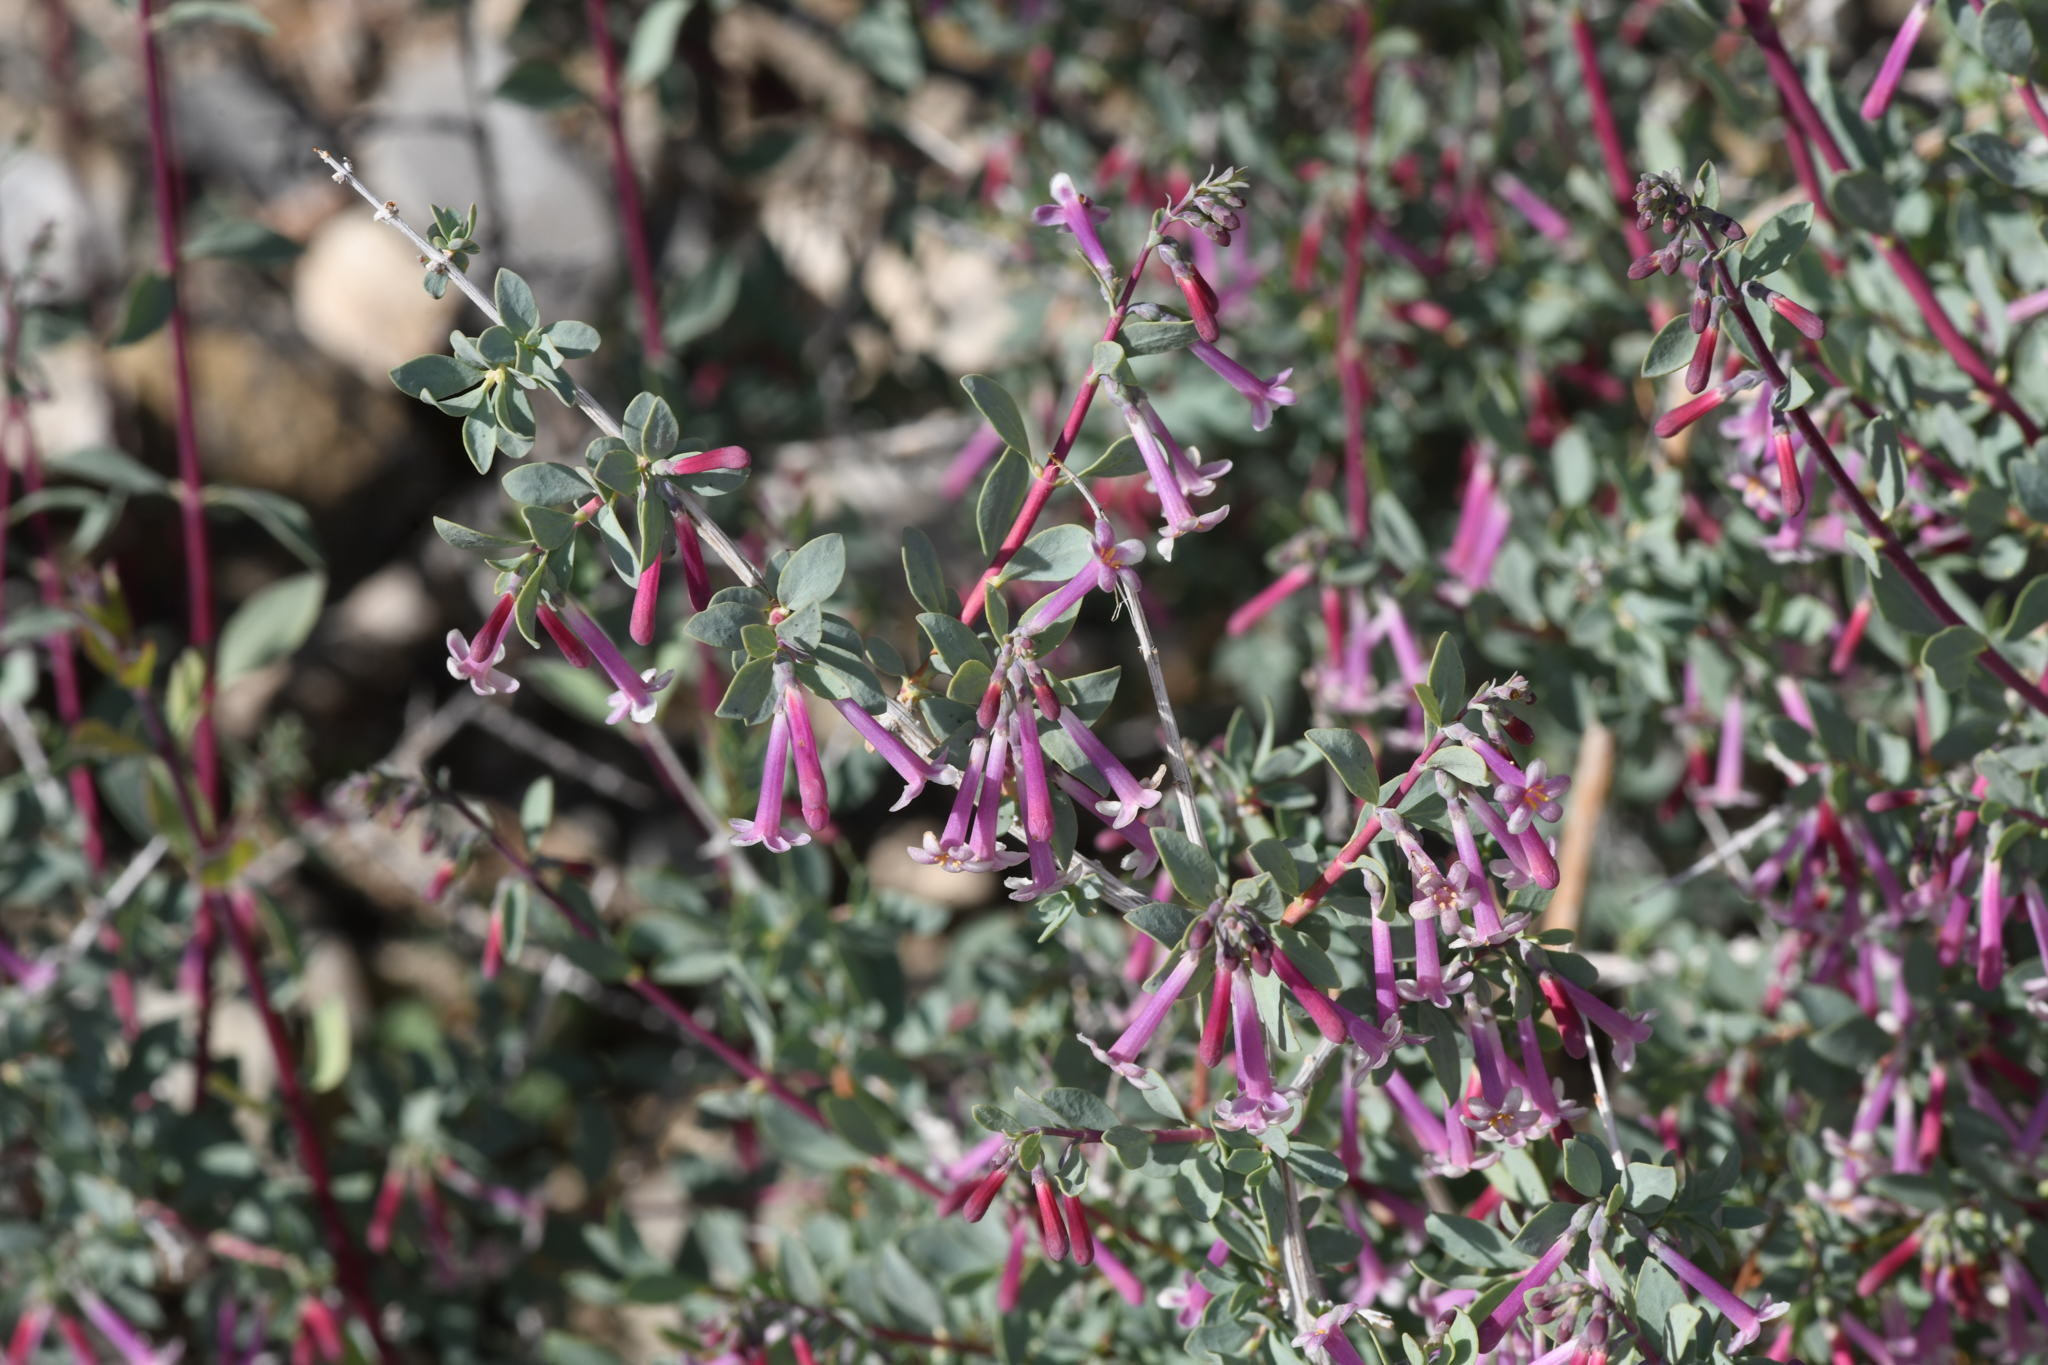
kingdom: Plantae
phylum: Tracheophyta
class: Magnoliopsida
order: Dipsacales
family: Caprifoliaceae
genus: Symphoricarpos
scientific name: Symphoricarpos longiflorus
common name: Fragrant snowberry
